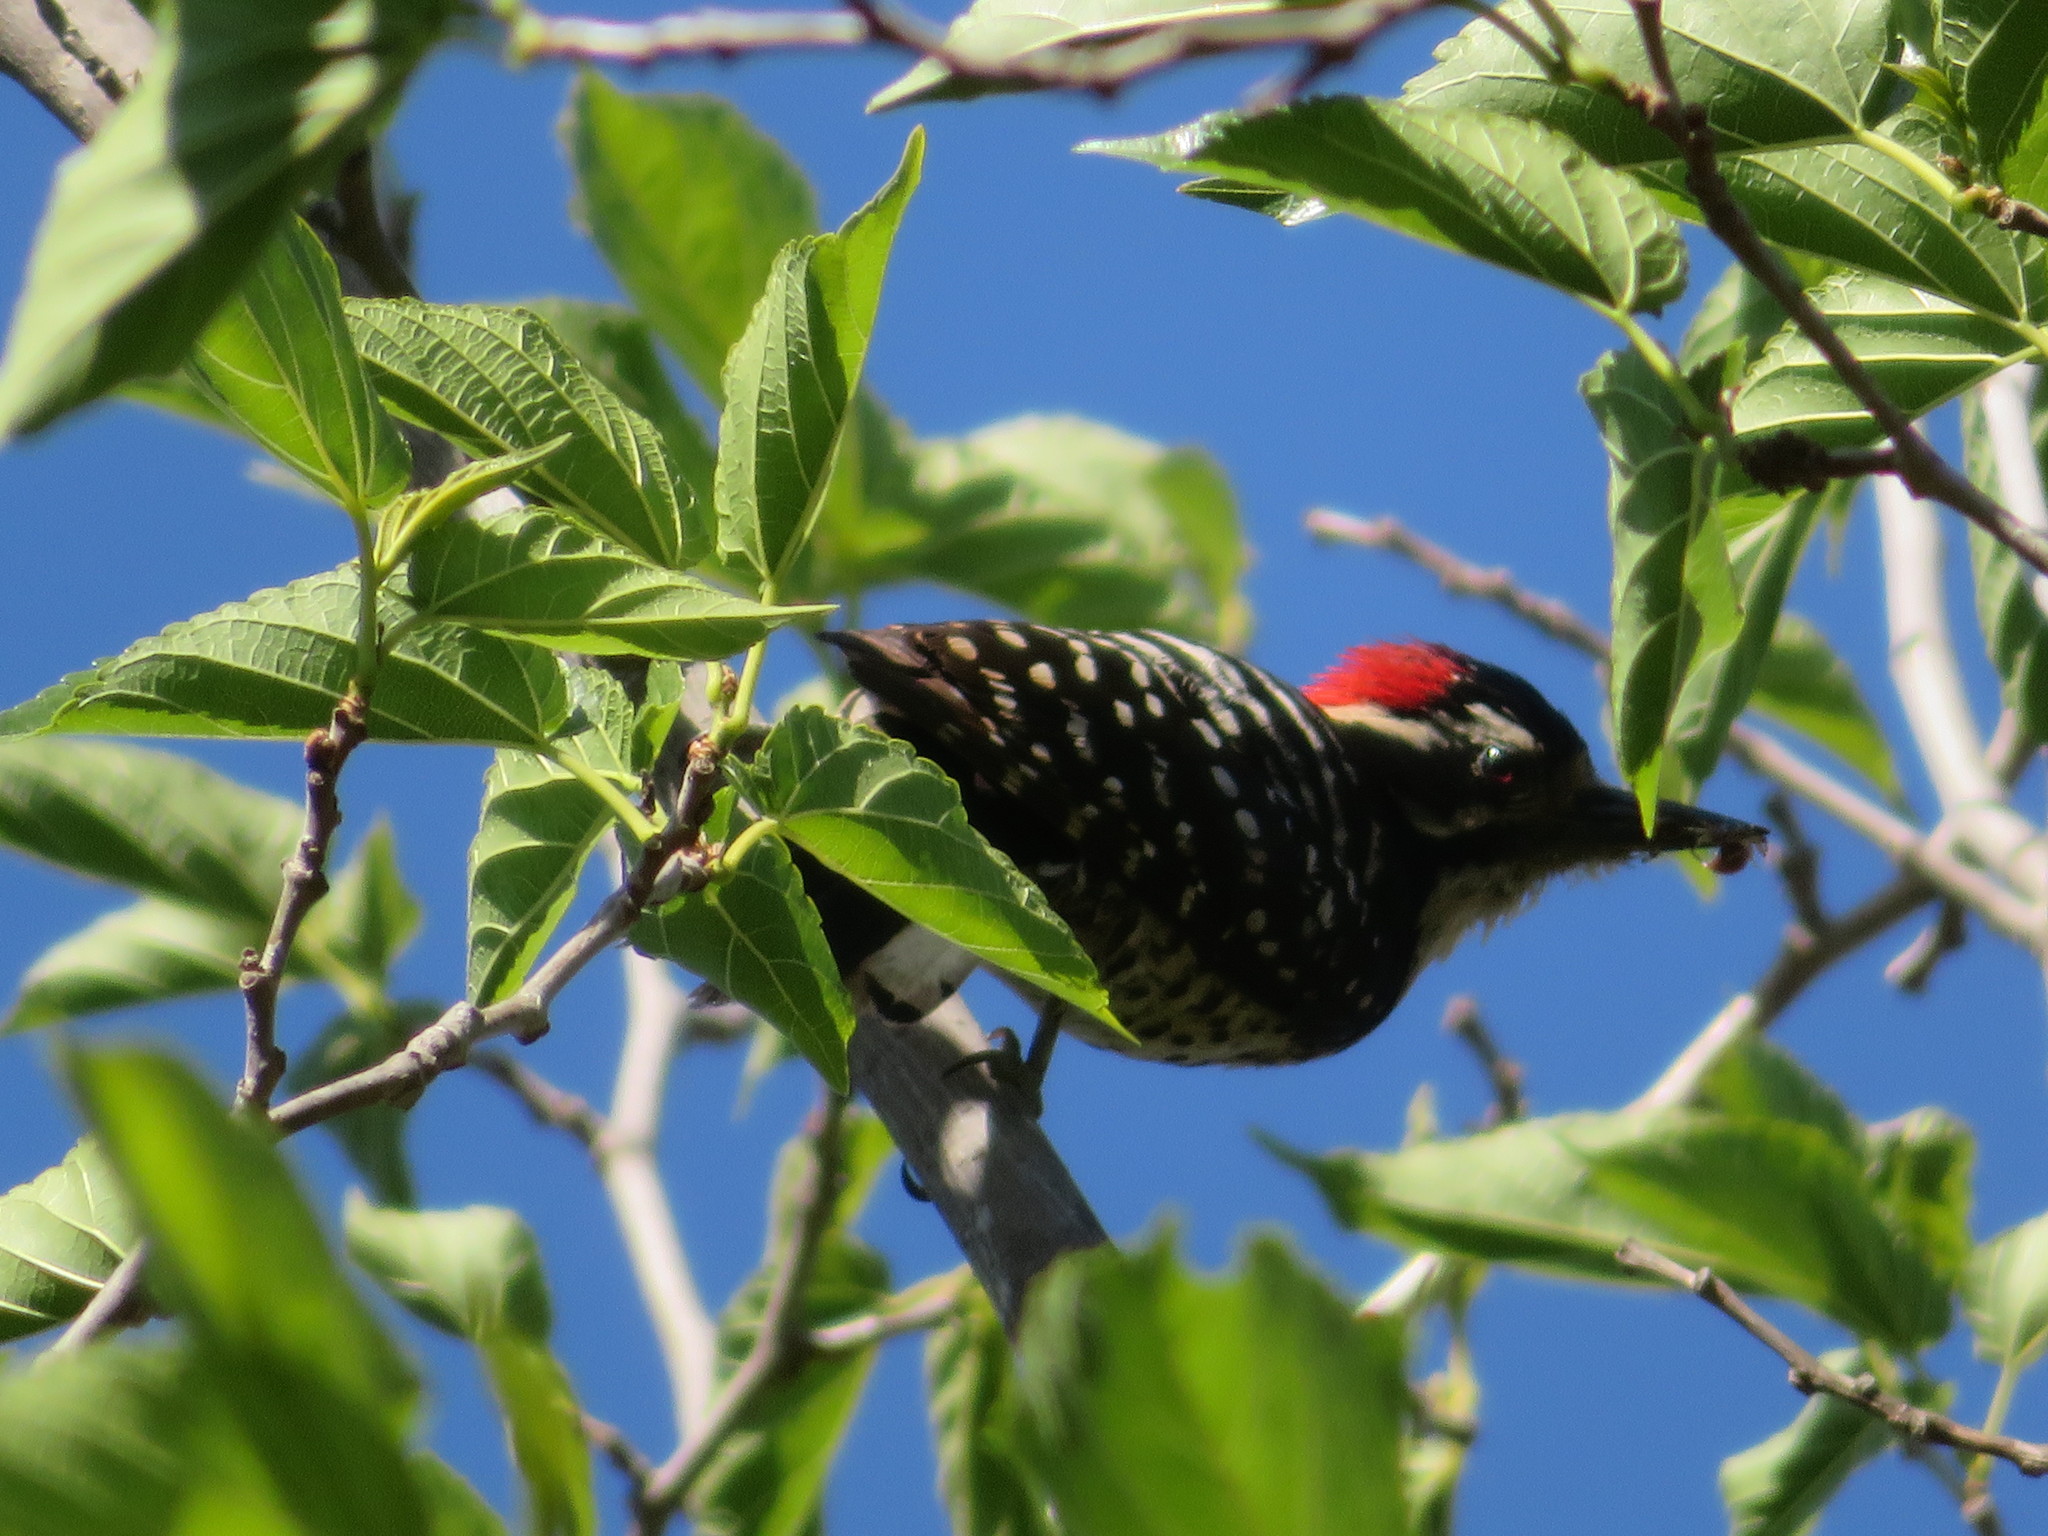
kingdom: Animalia
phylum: Chordata
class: Aves
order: Piciformes
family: Picidae
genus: Dryobates
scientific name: Dryobates nuttallii
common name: Nuttall's woodpecker
